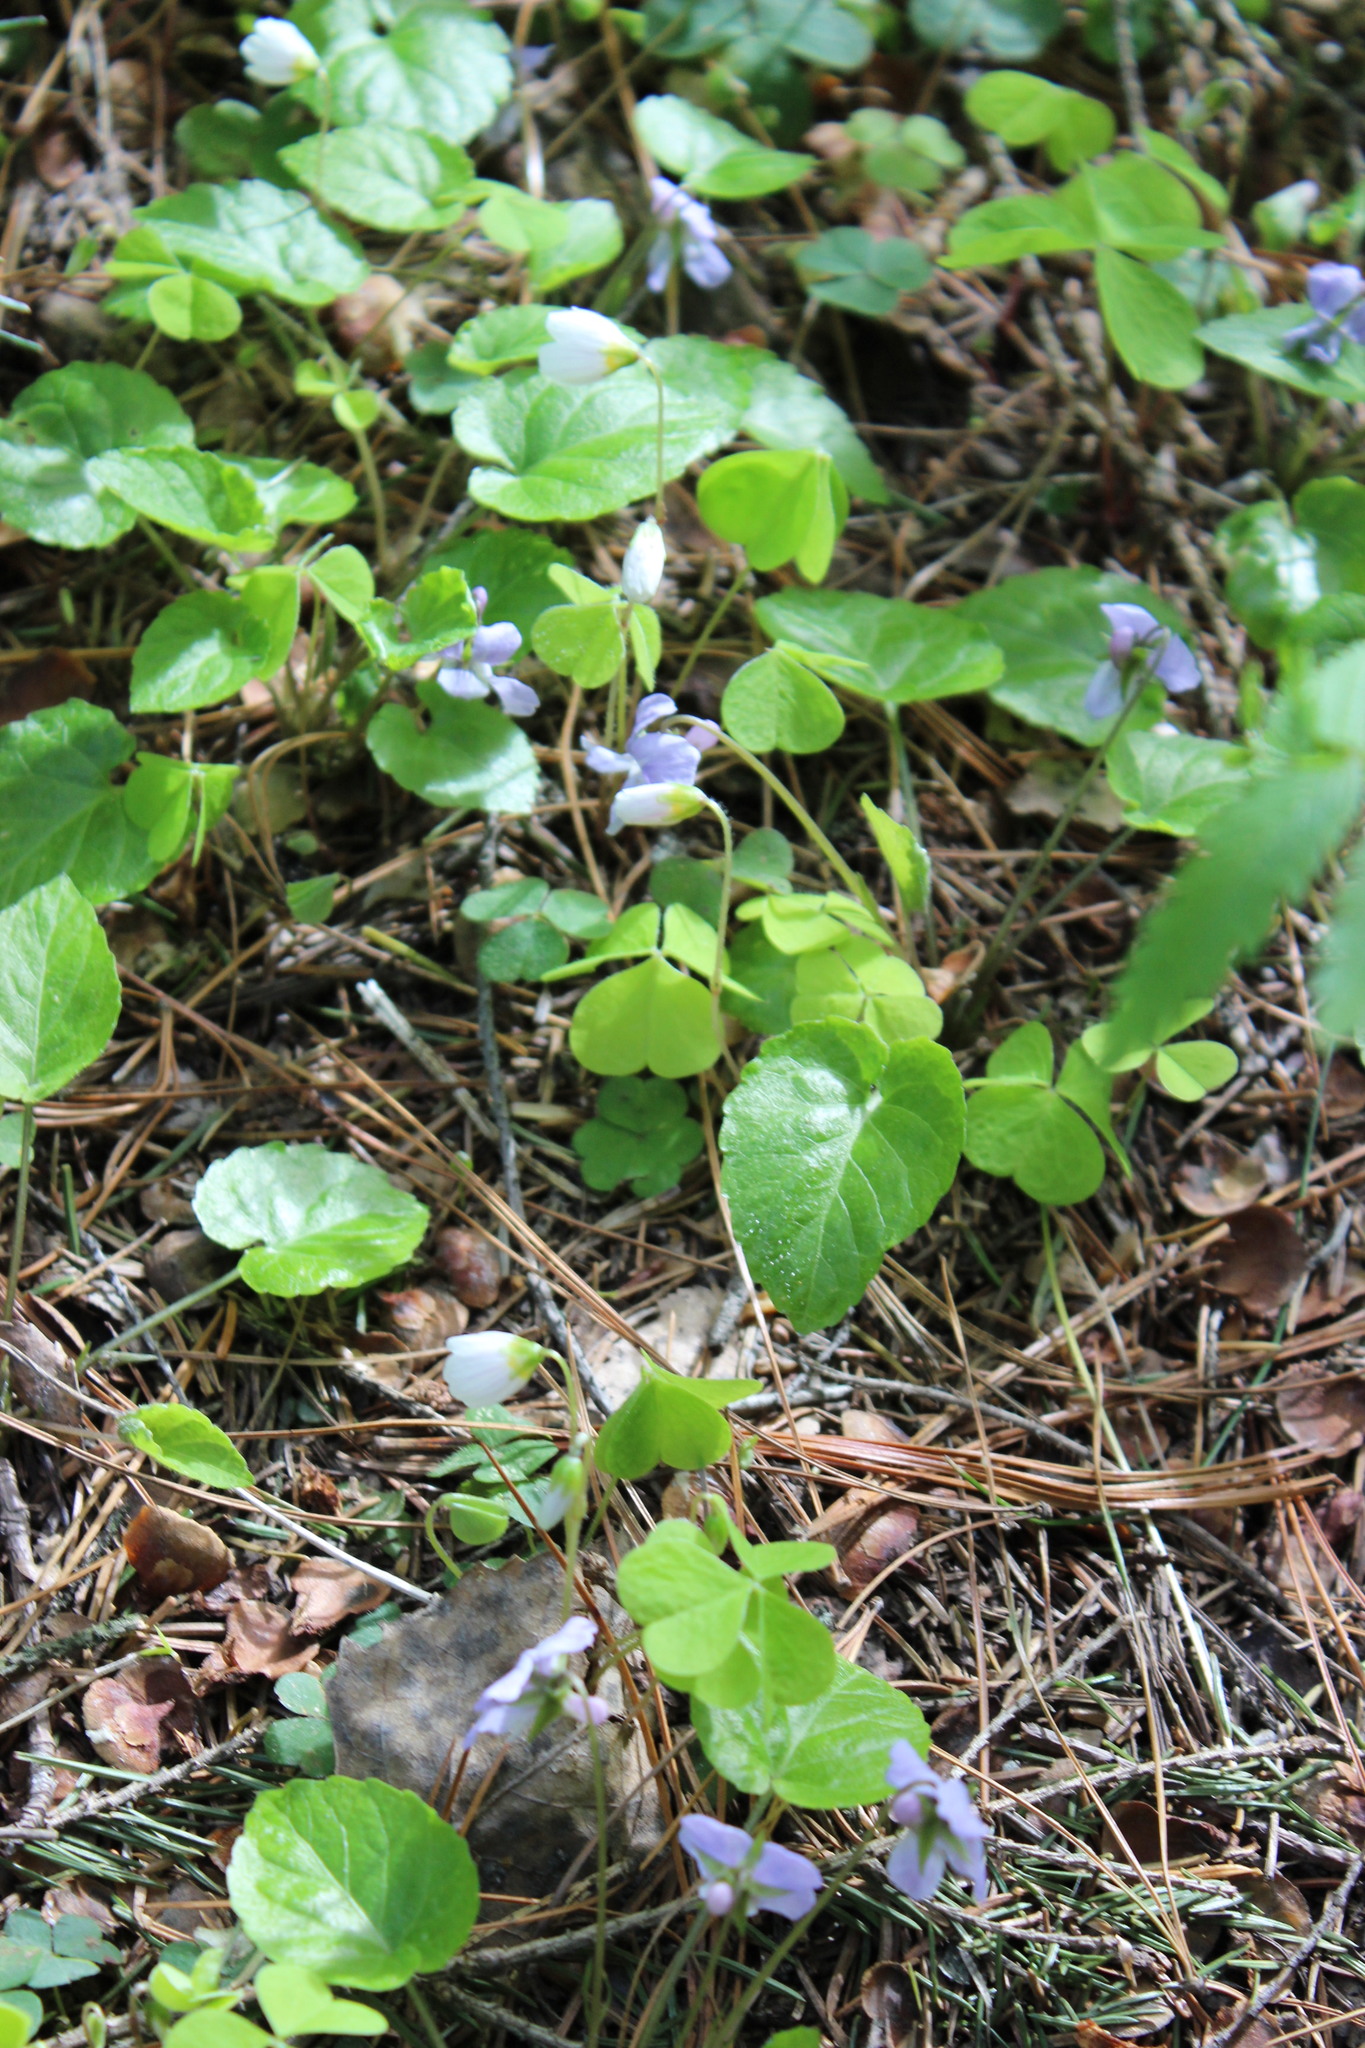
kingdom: Plantae
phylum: Tracheophyta
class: Magnoliopsida
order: Malpighiales
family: Violaceae
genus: Viola
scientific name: Viola selkirkii
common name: Selkirk's violet
